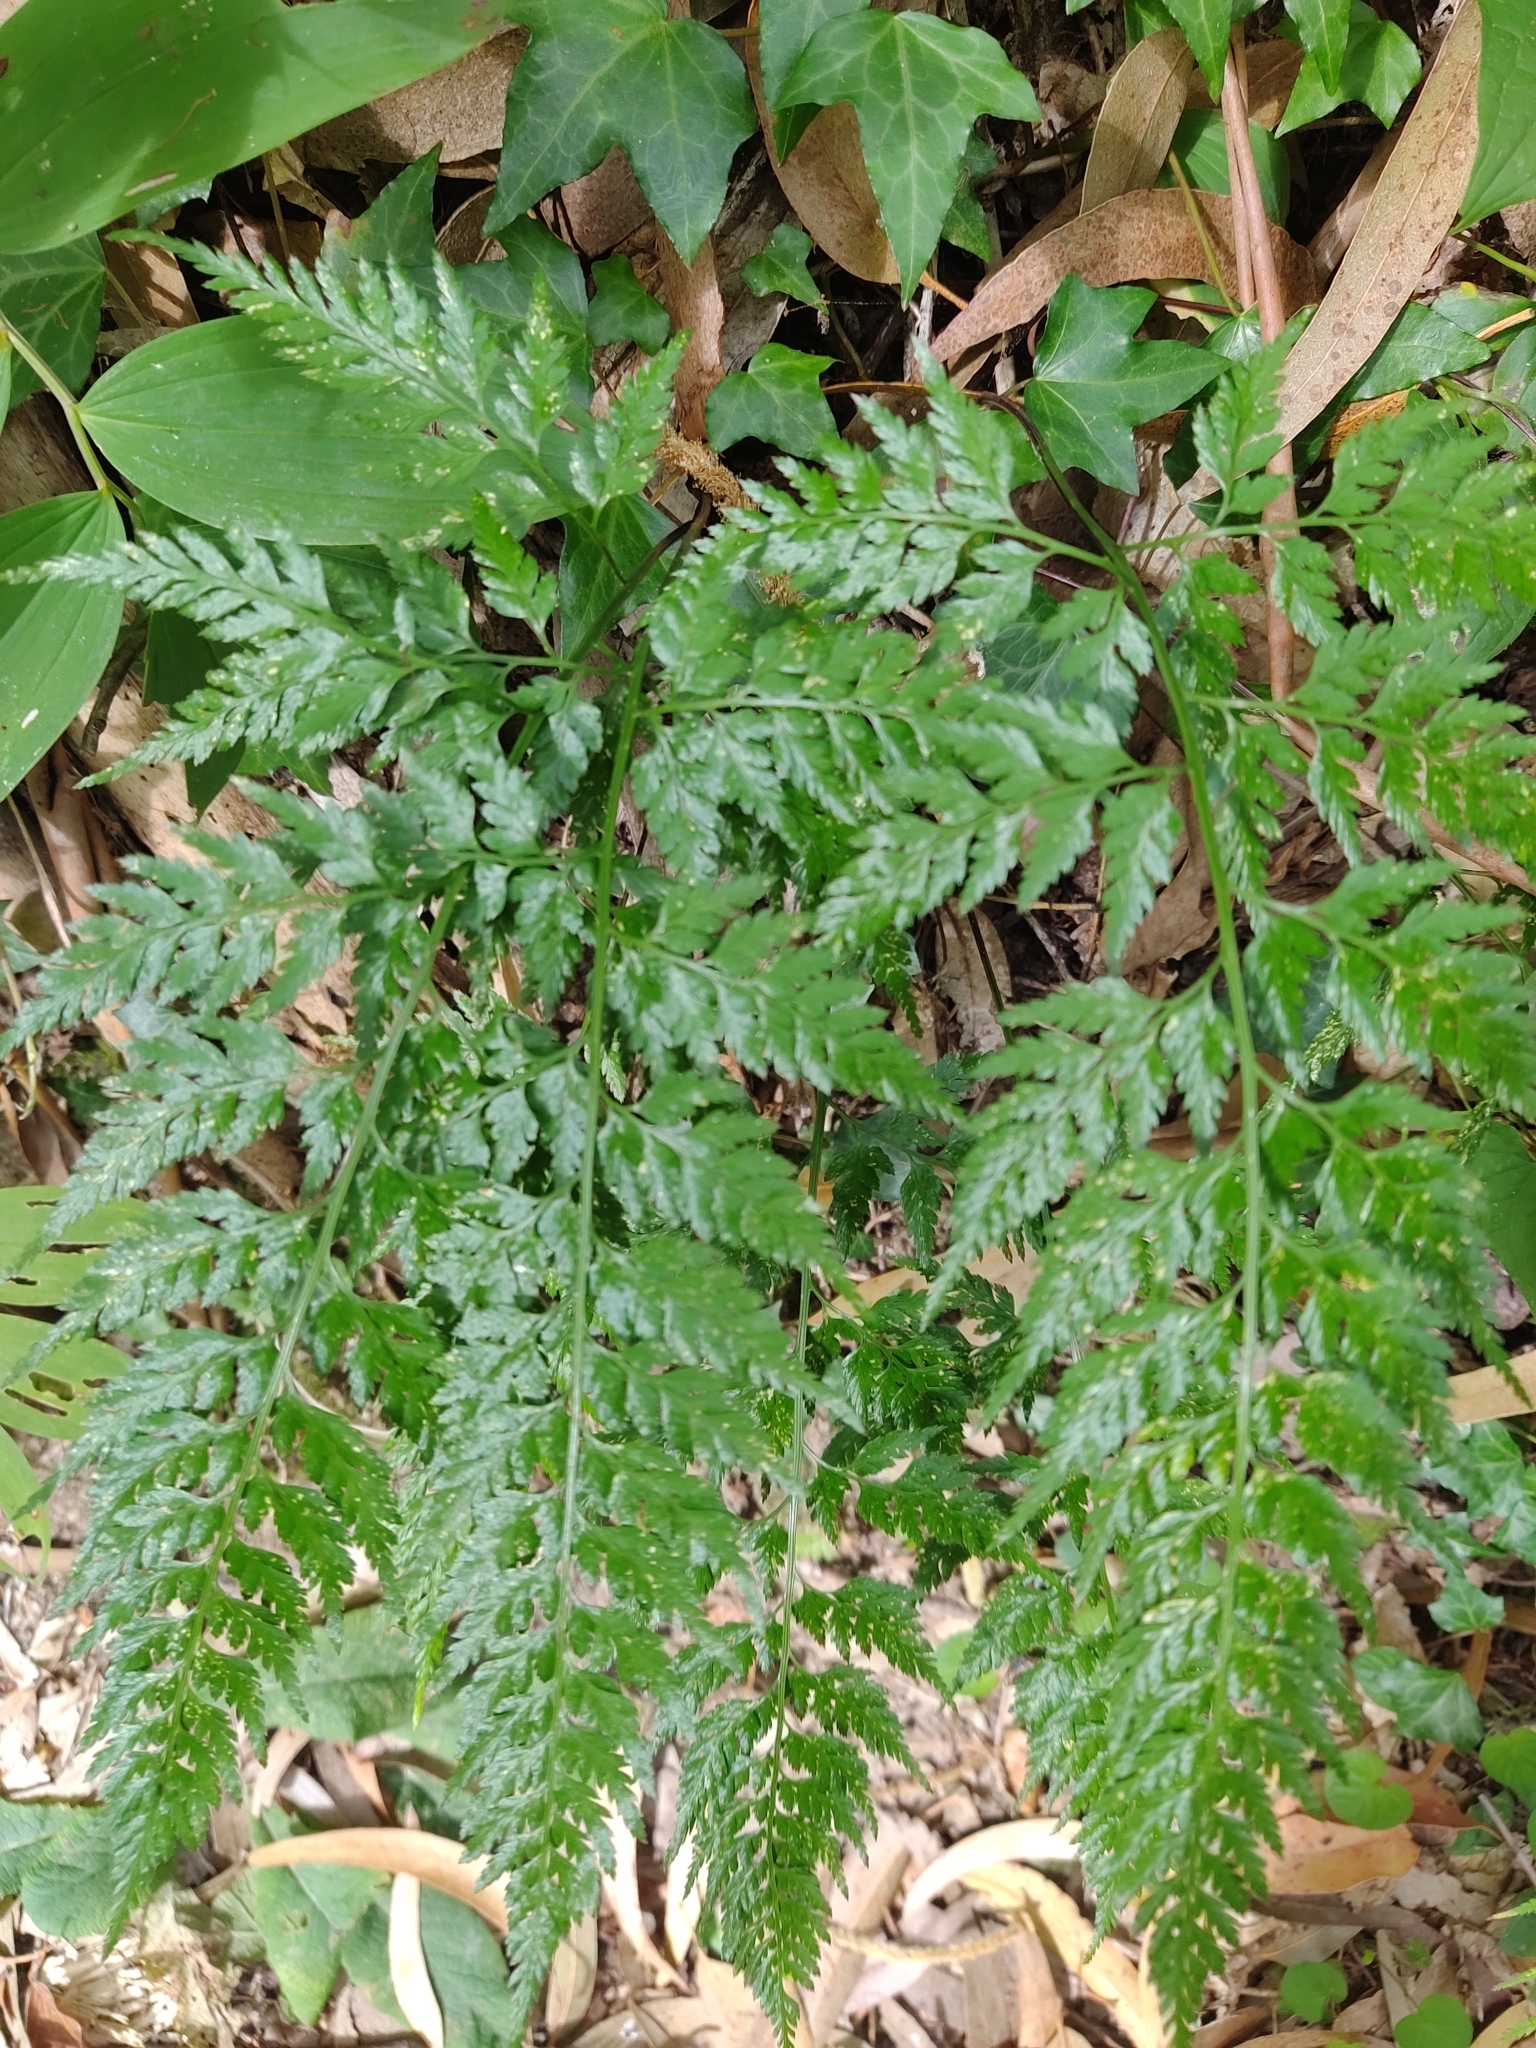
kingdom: Plantae
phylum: Tracheophyta
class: Polypodiopsida
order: Polypodiales
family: Aspleniaceae
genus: Asplenium
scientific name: Asplenium onopteris
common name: Irish spleenwort
